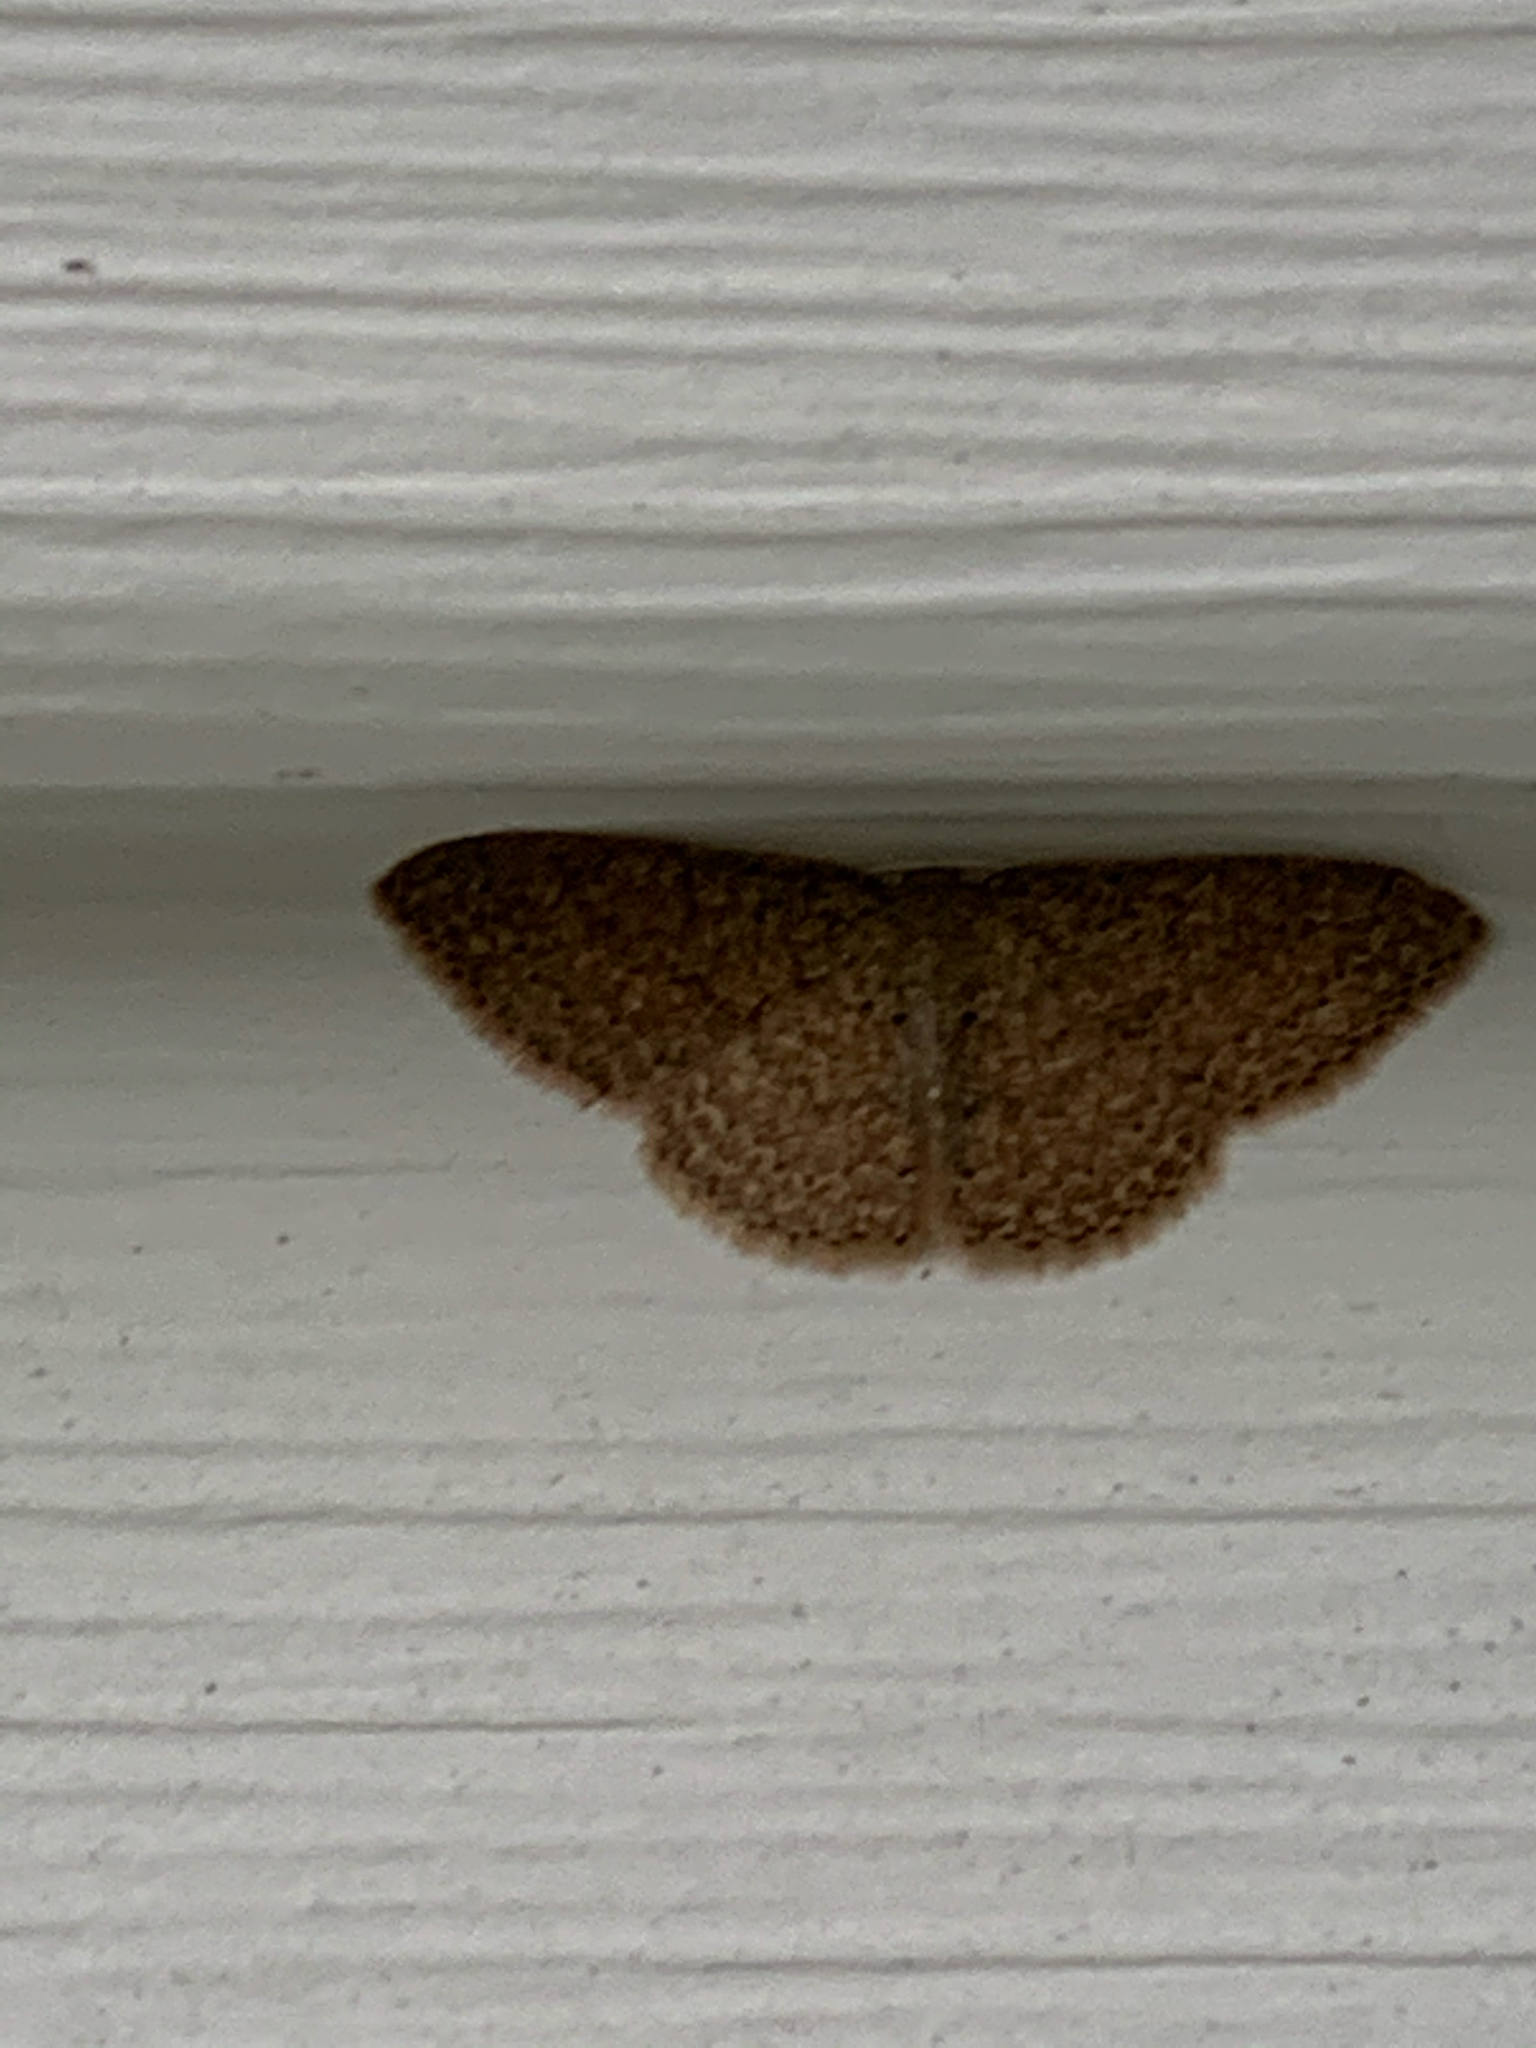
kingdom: Animalia
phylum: Arthropoda
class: Insecta
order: Lepidoptera
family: Geometridae
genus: Pleuroprucha
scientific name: Pleuroprucha insulsaria
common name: Common tan wave
